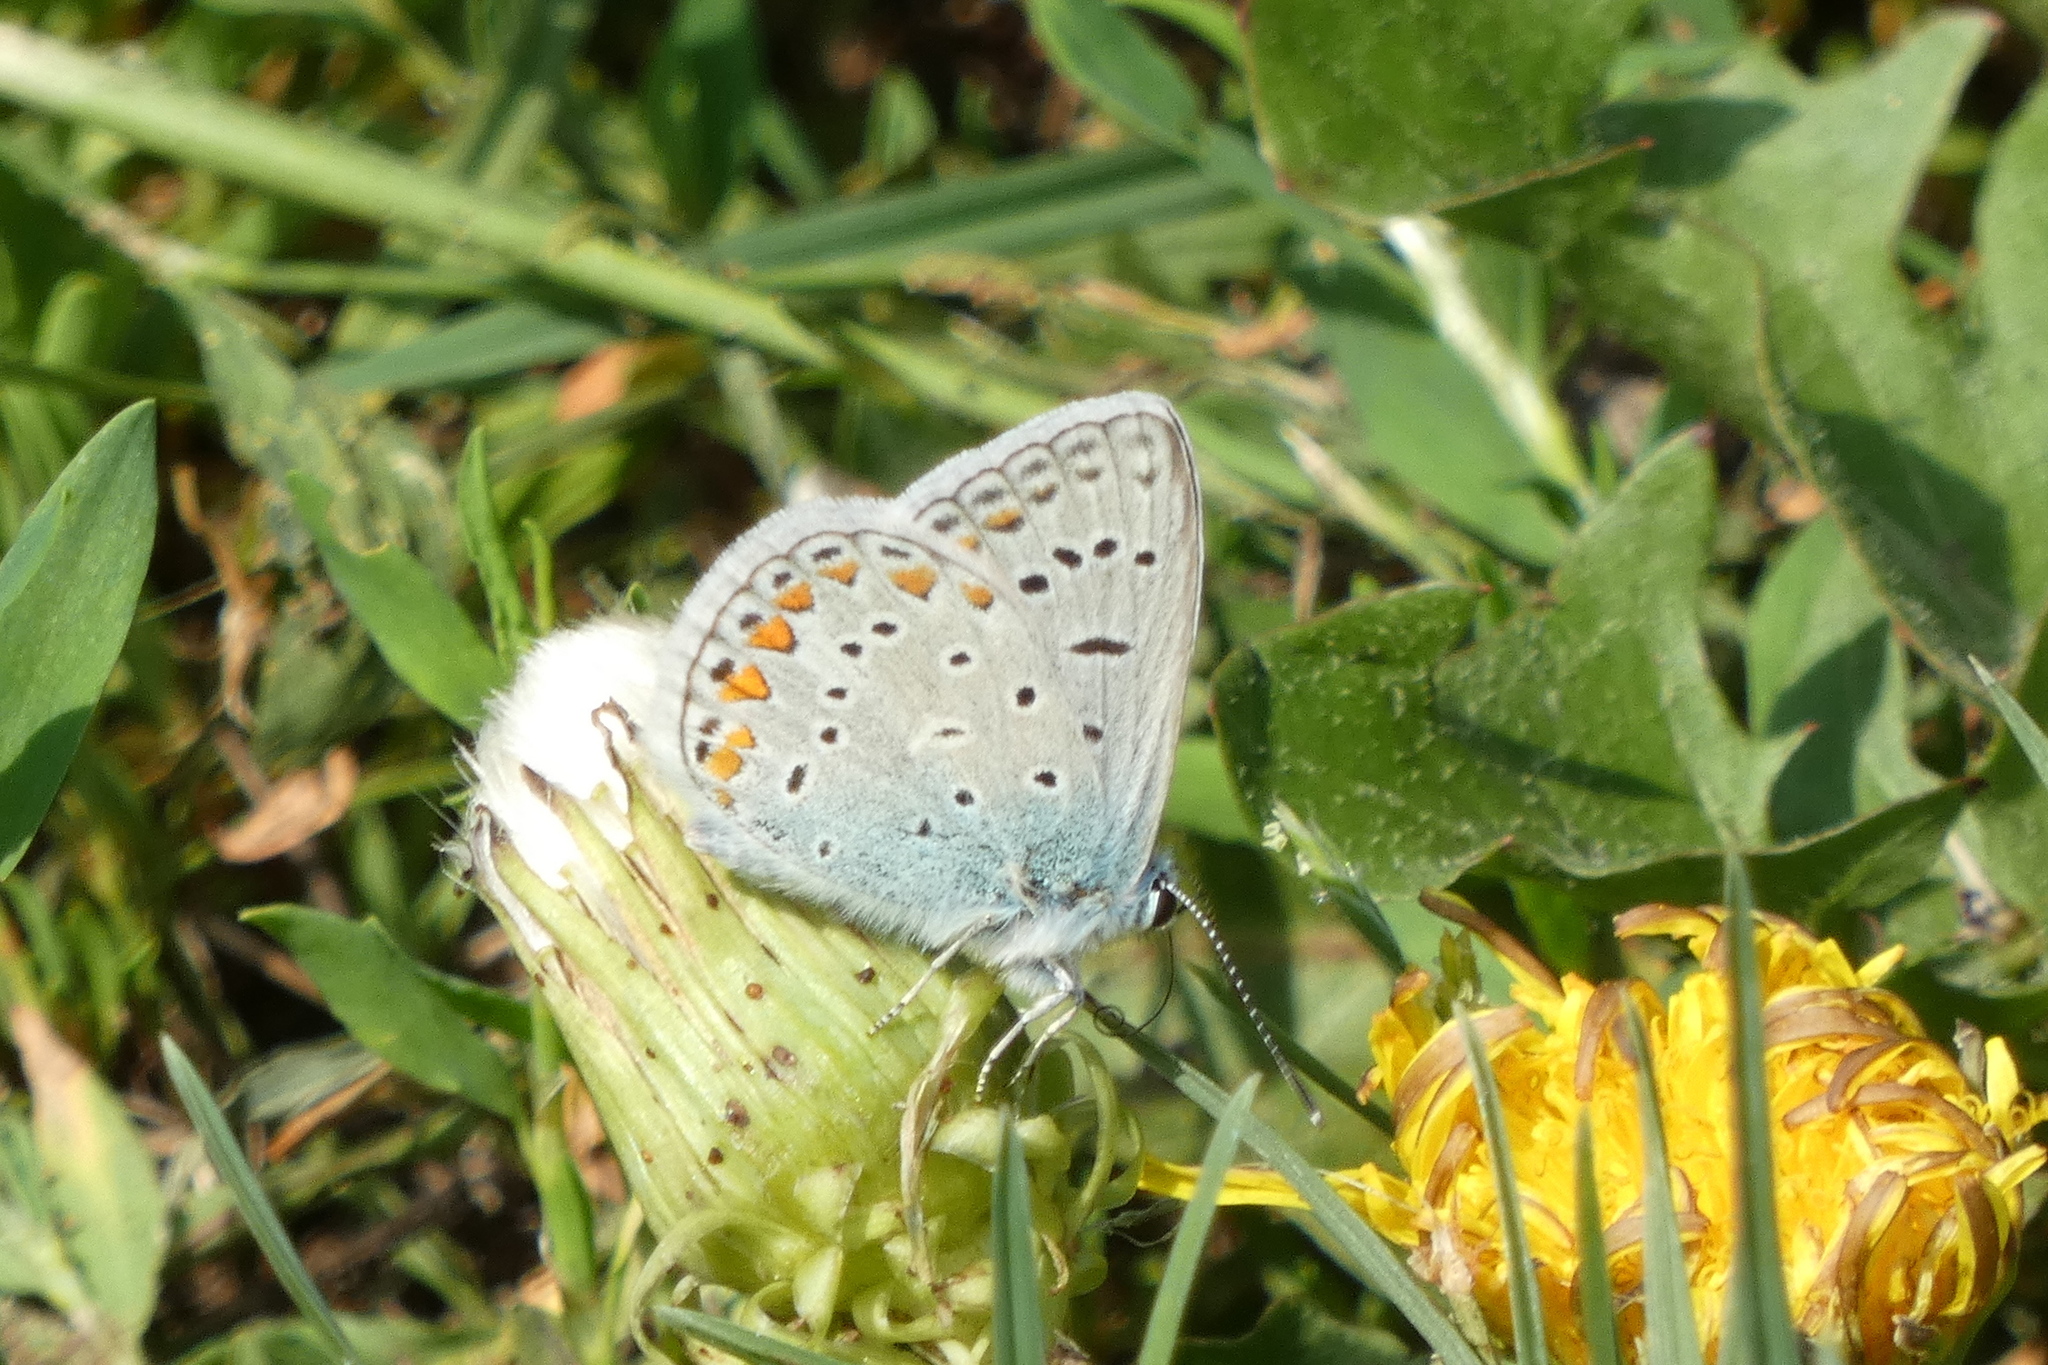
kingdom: Animalia
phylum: Arthropoda
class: Insecta
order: Lepidoptera
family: Lycaenidae
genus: Polyommatus
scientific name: Polyommatus icarus
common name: Common blue
